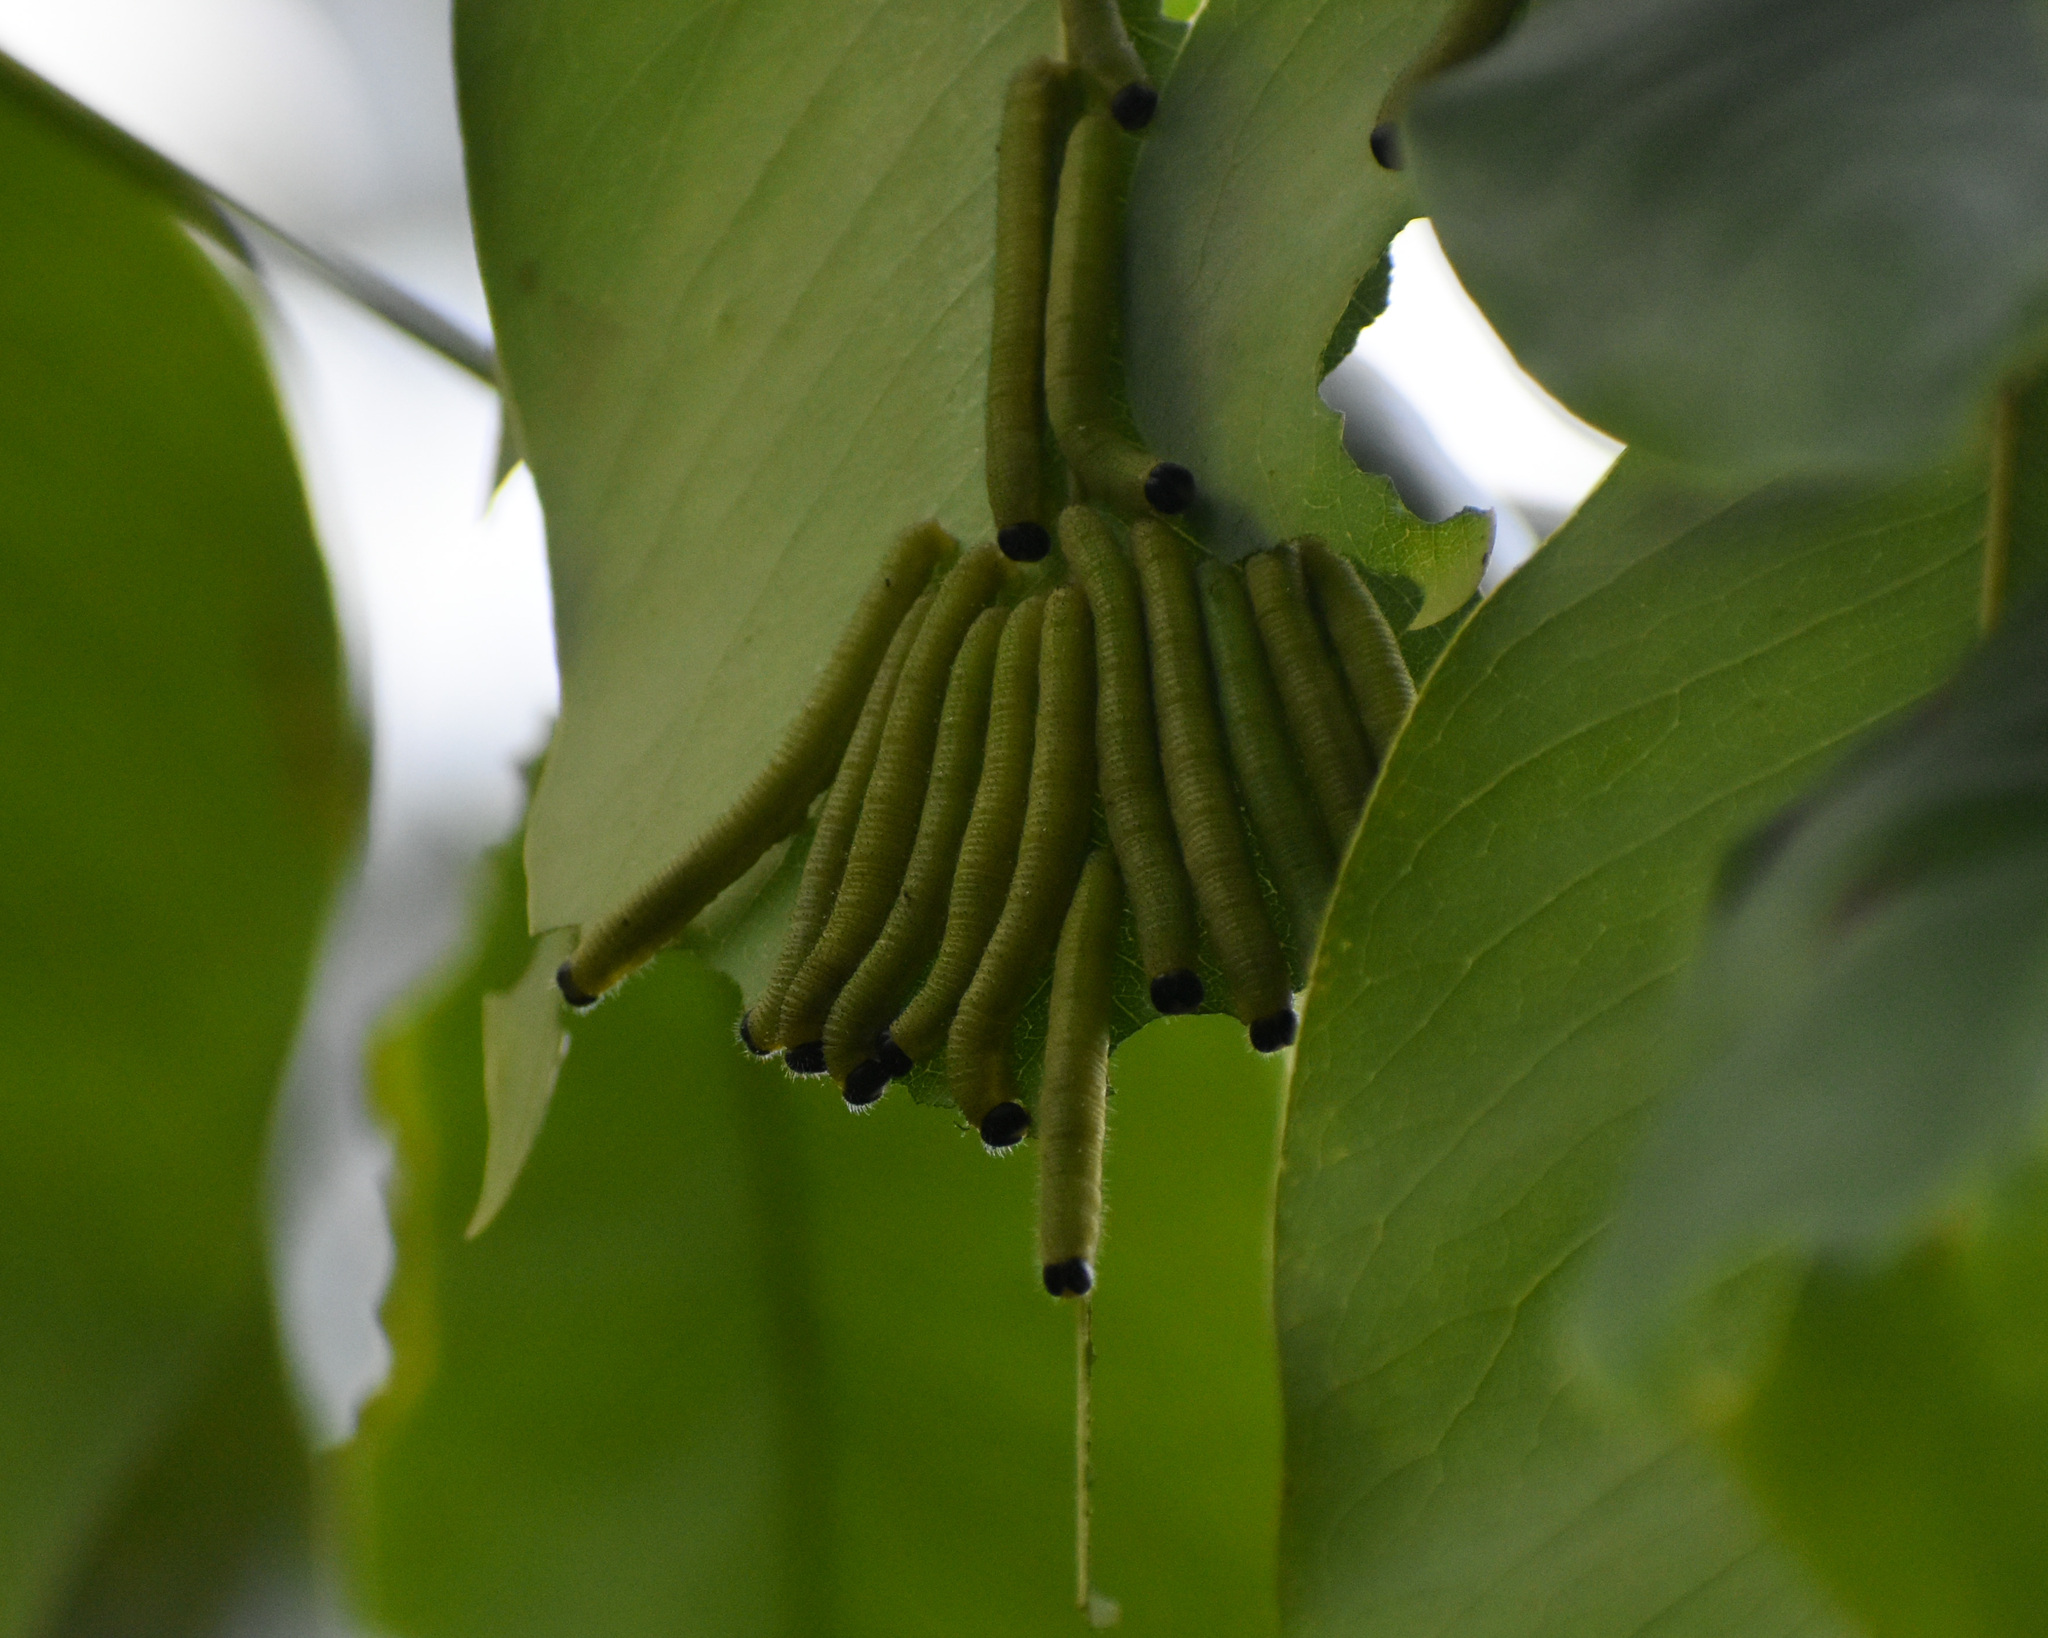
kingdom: Animalia
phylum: Arthropoda
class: Insecta
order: Lepidoptera
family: Pieridae
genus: Eurema
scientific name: Eurema blanda
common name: Three-spot grass yellow
